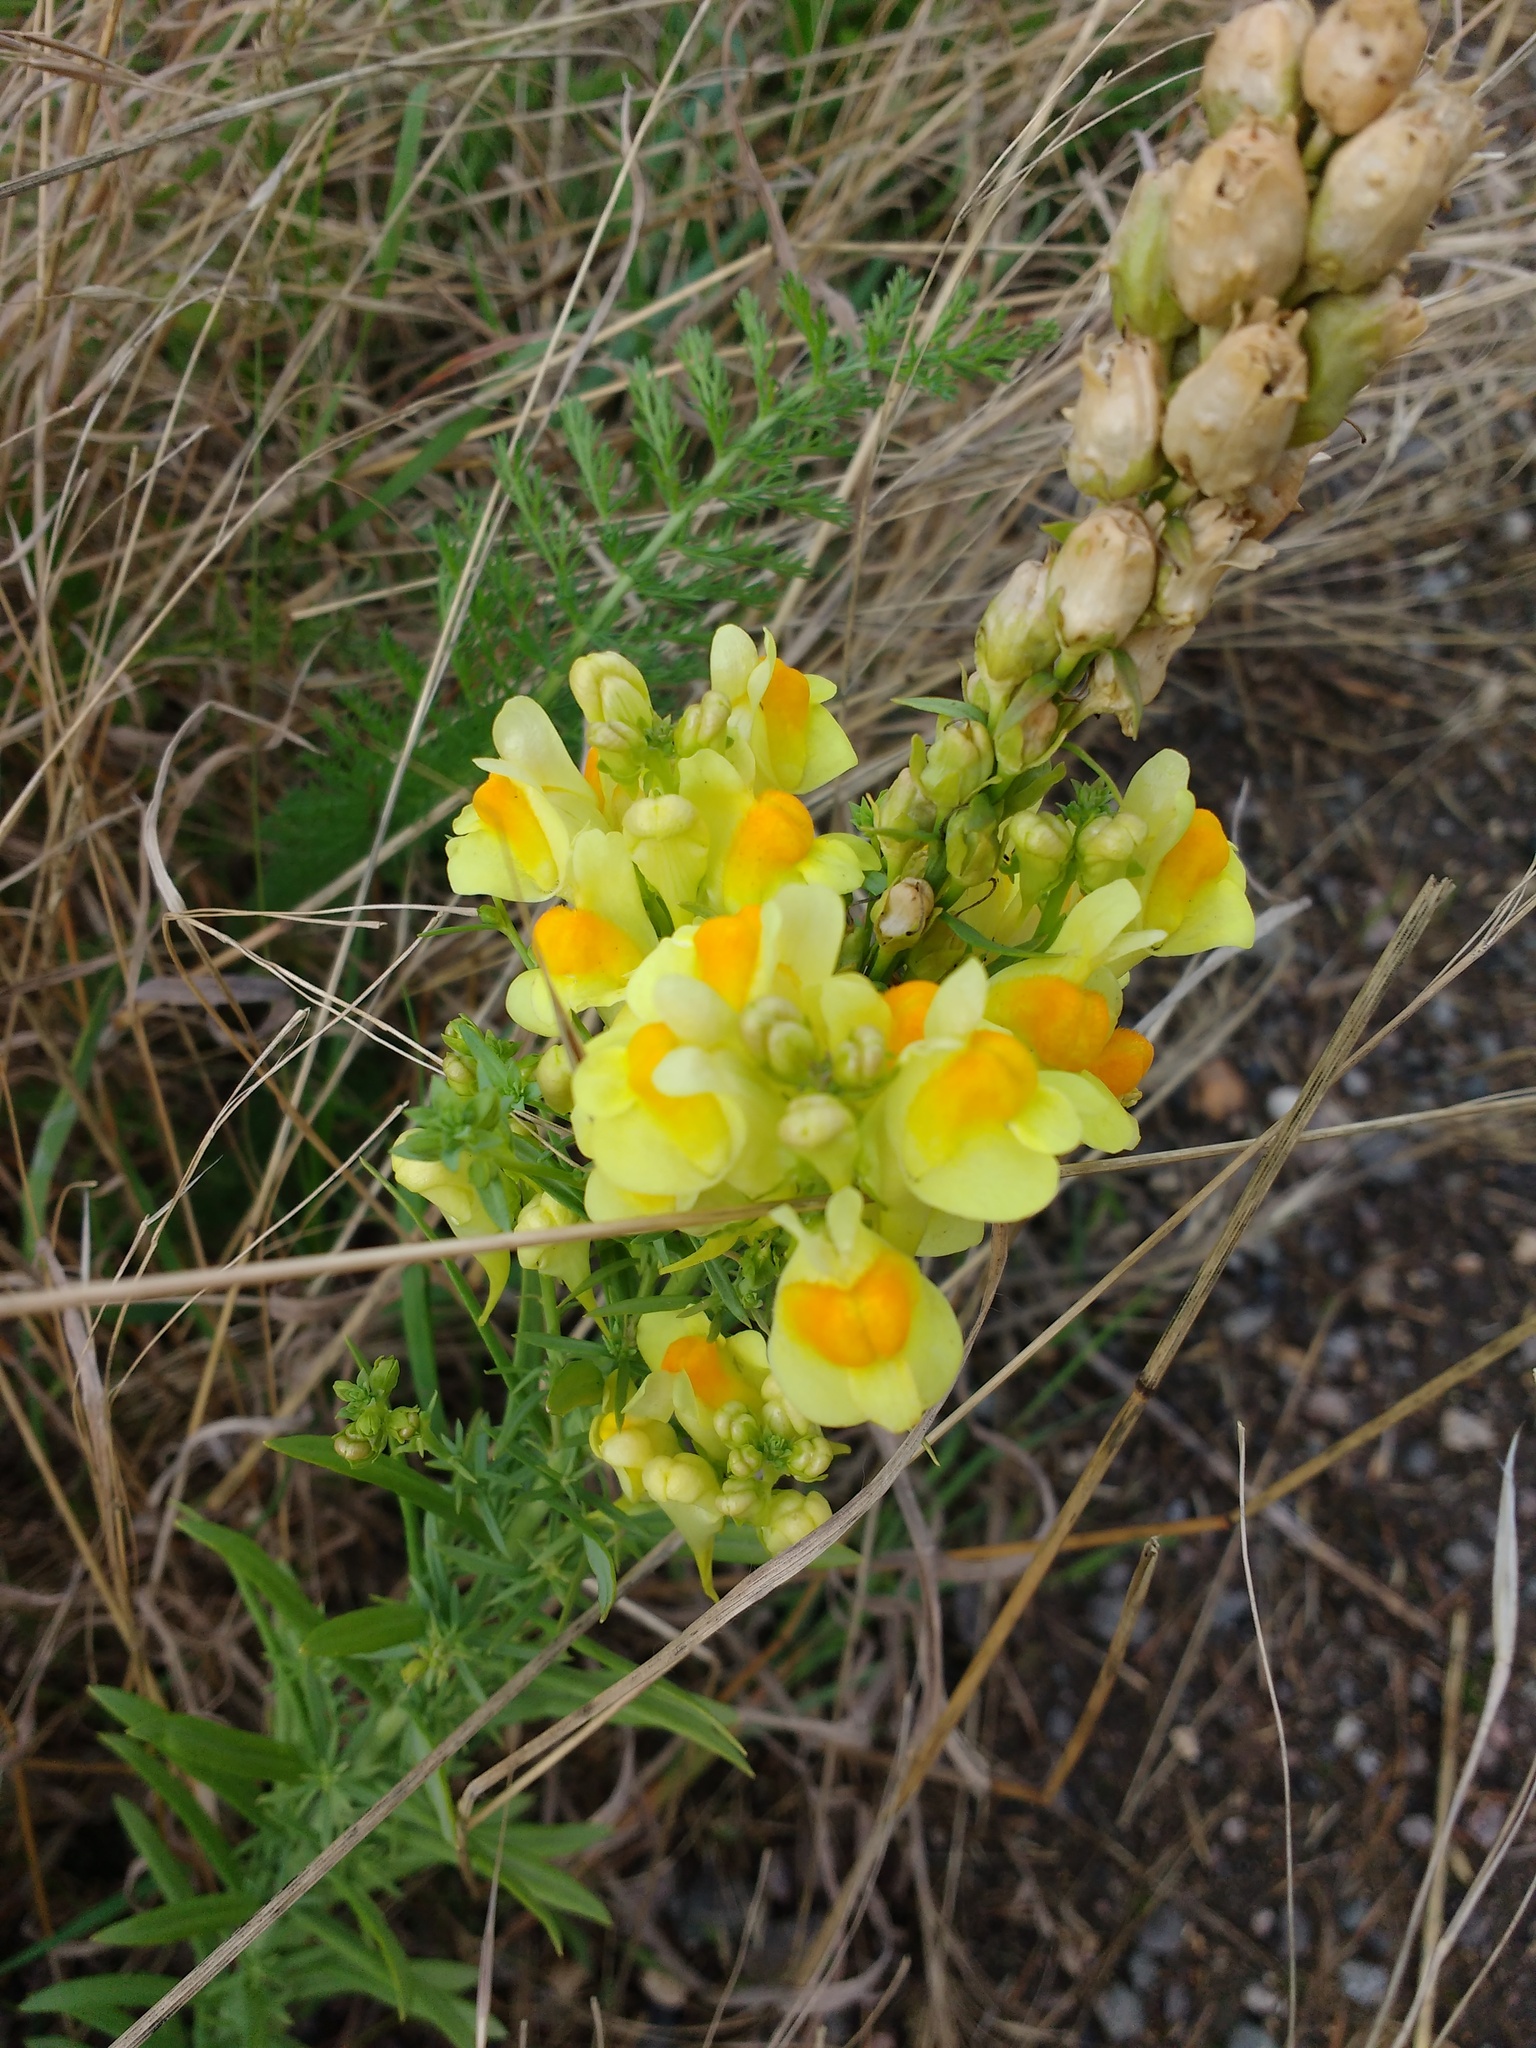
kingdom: Plantae
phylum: Tracheophyta
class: Magnoliopsida
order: Lamiales
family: Plantaginaceae
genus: Linaria
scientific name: Linaria vulgaris
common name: Butter and eggs
